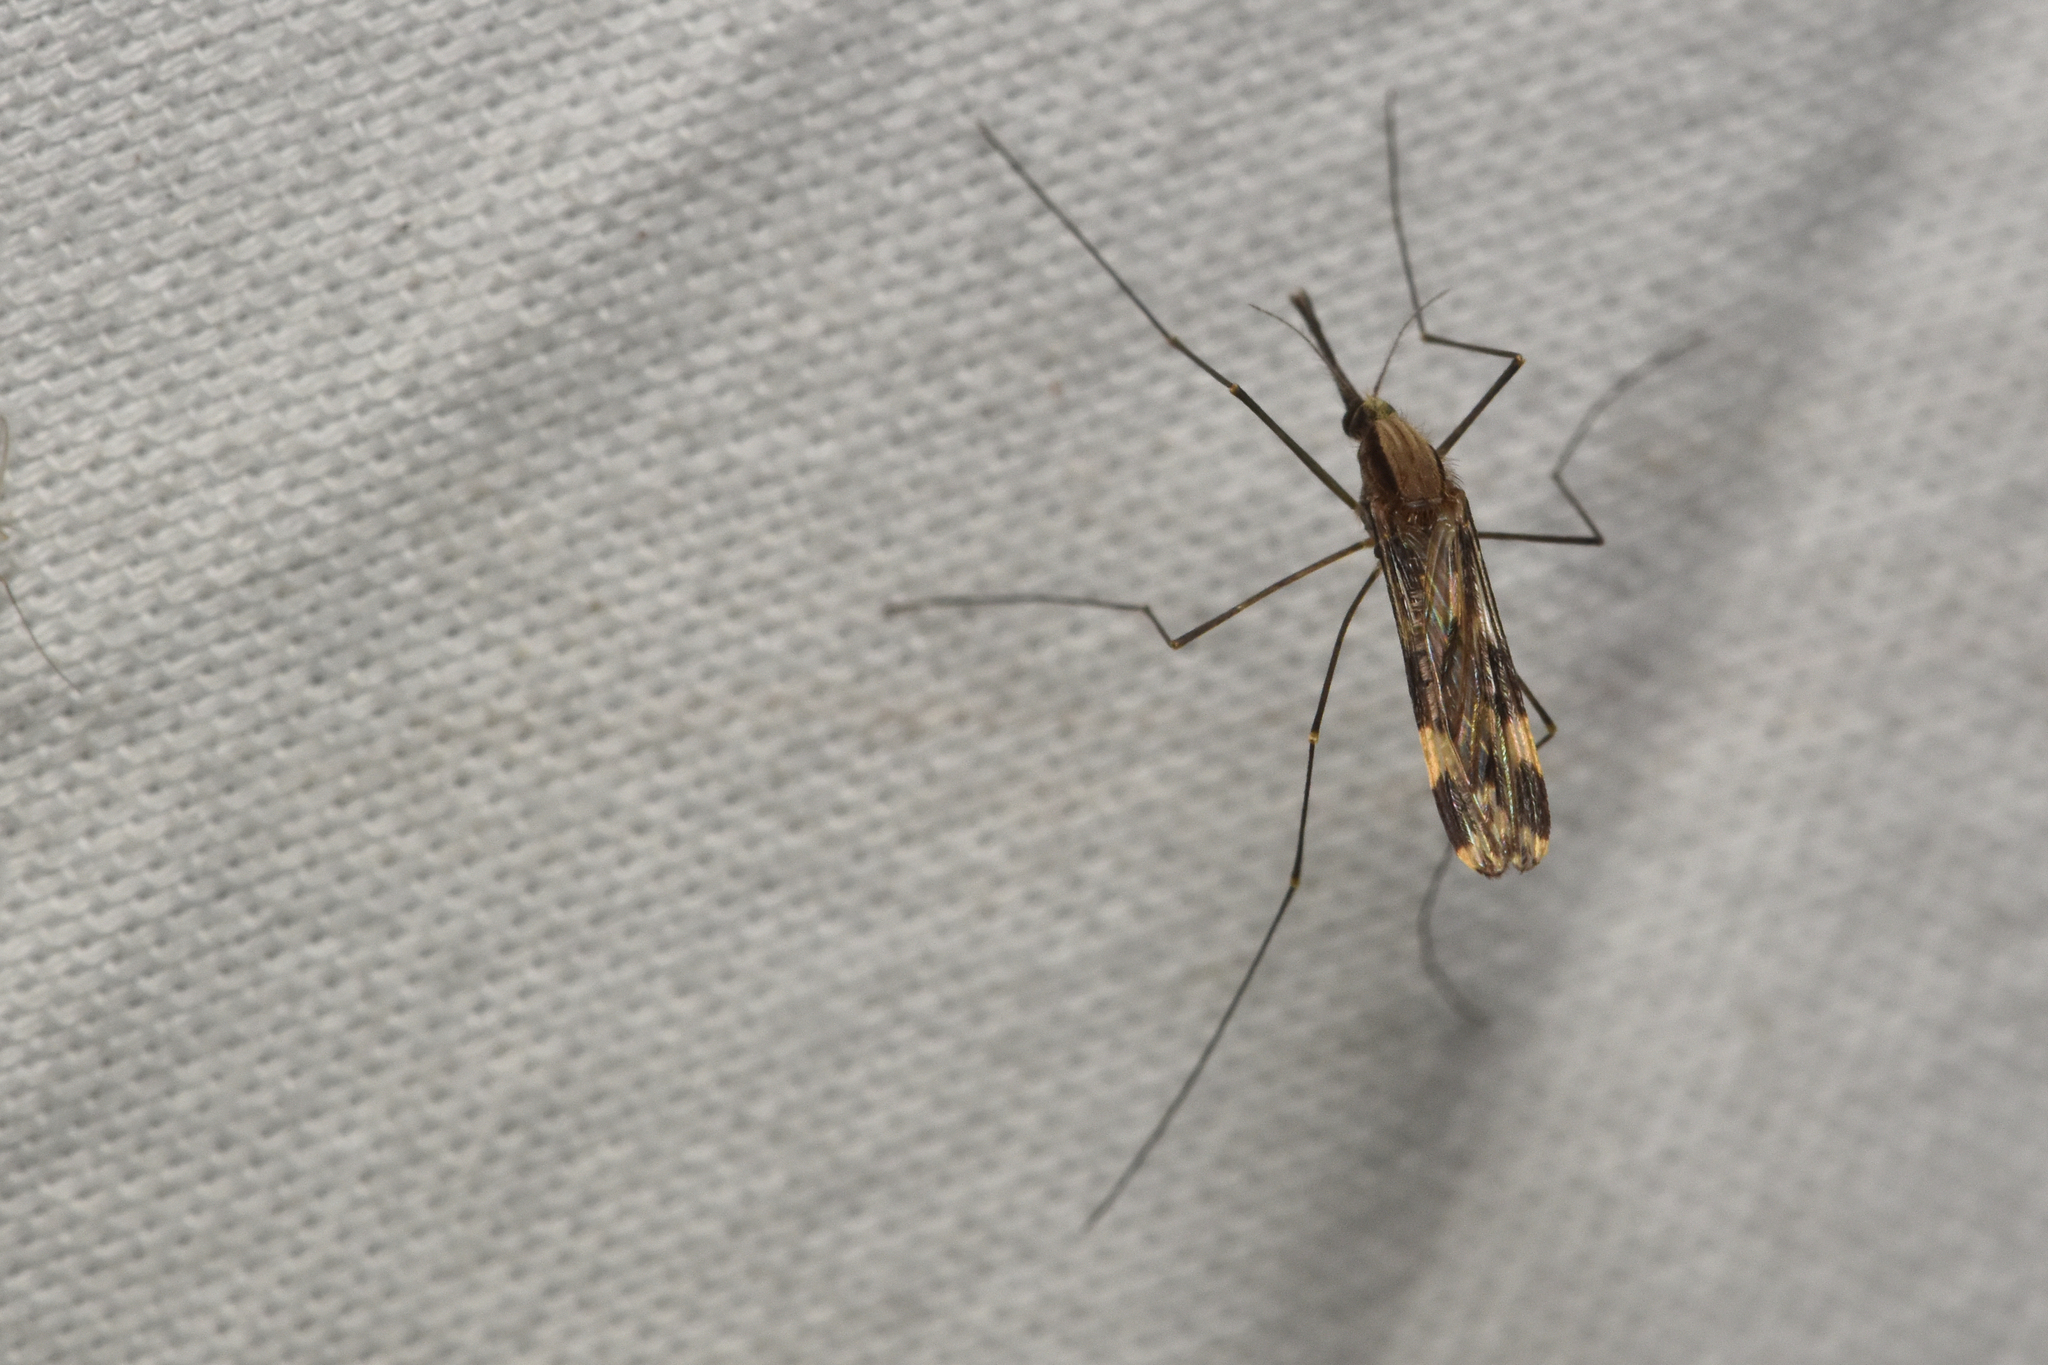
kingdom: Animalia
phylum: Arthropoda
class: Insecta
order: Diptera
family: Culicidae
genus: Anopheles
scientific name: Anopheles punctipennis
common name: Woodland malaria mosquito
